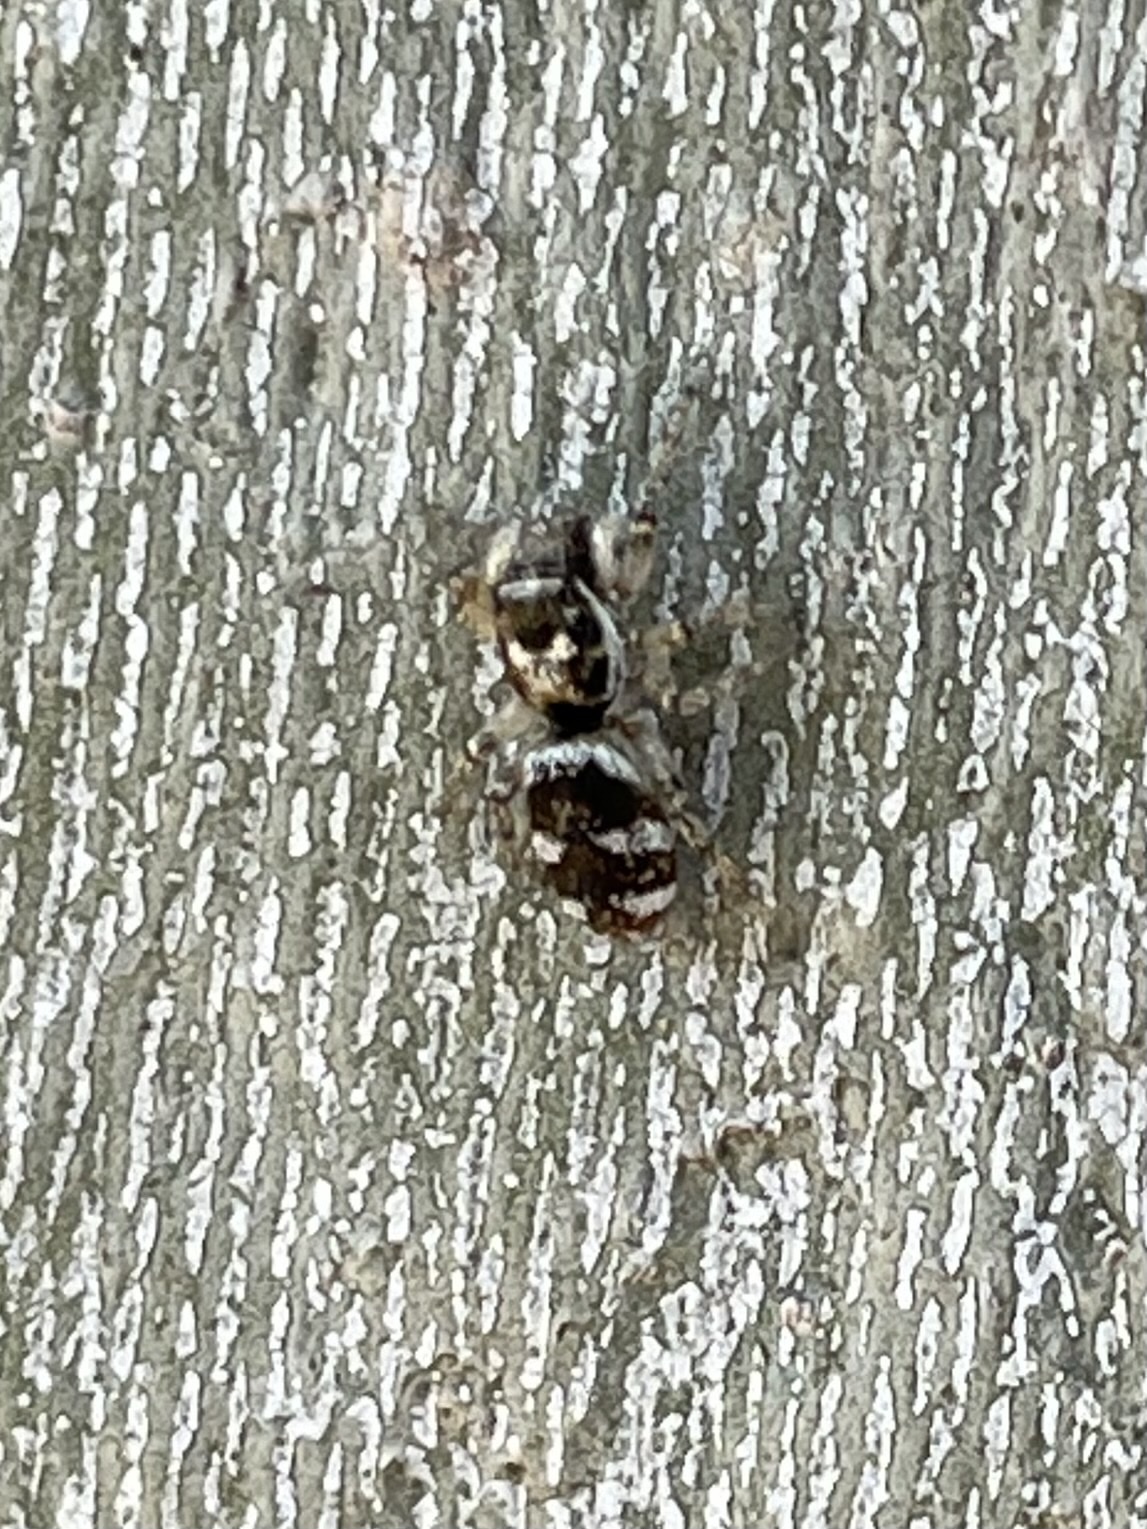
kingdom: Animalia
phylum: Arthropoda
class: Arachnida
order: Araneae
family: Salticidae
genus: Salticus
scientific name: Salticus scenicus
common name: Zebra jumper
